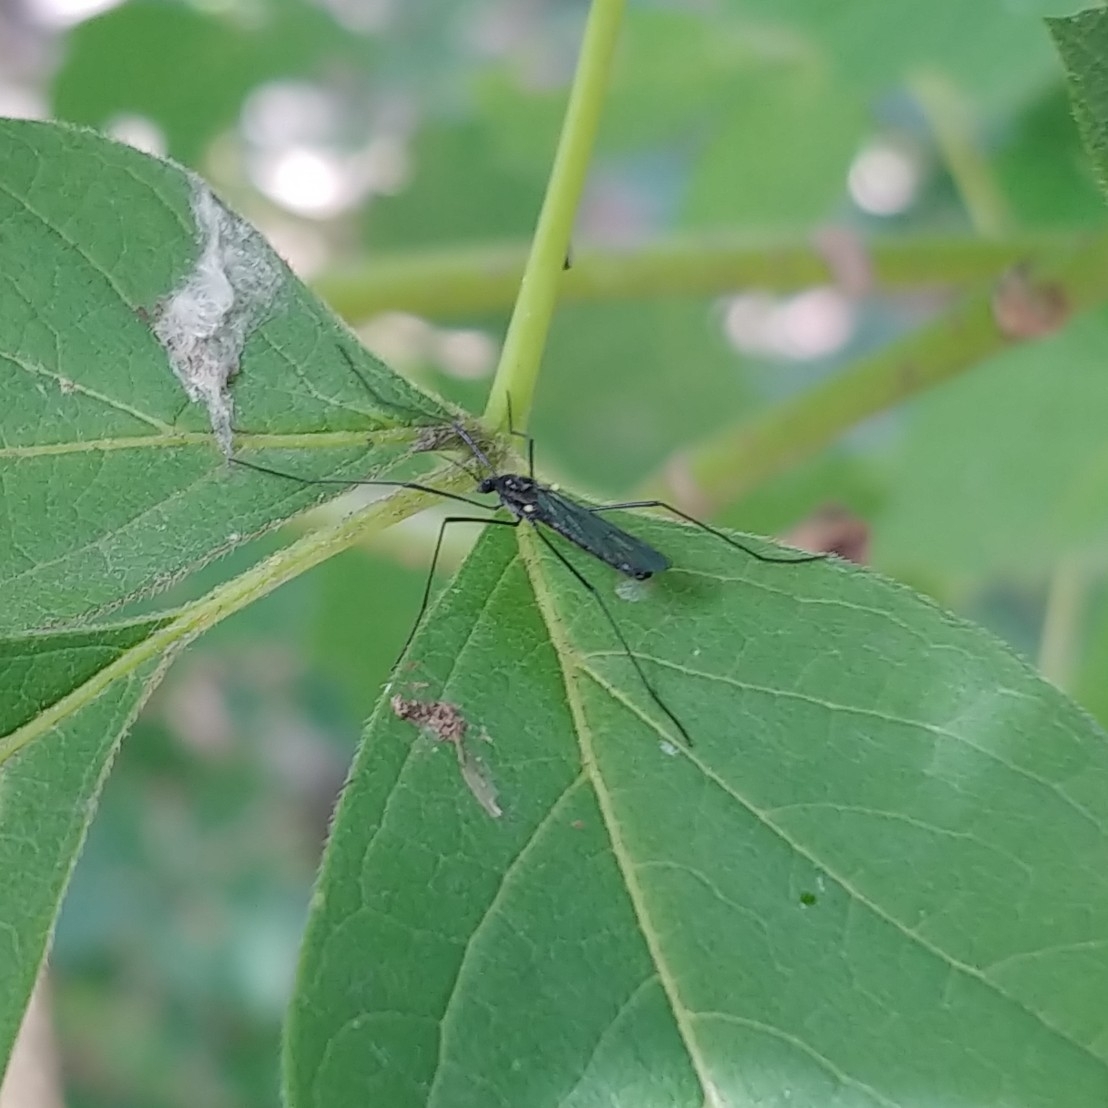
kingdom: Animalia
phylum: Arthropoda
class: Insecta
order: Diptera
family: Limoniidae
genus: Gnophomyia
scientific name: Gnophomyia tristissima
